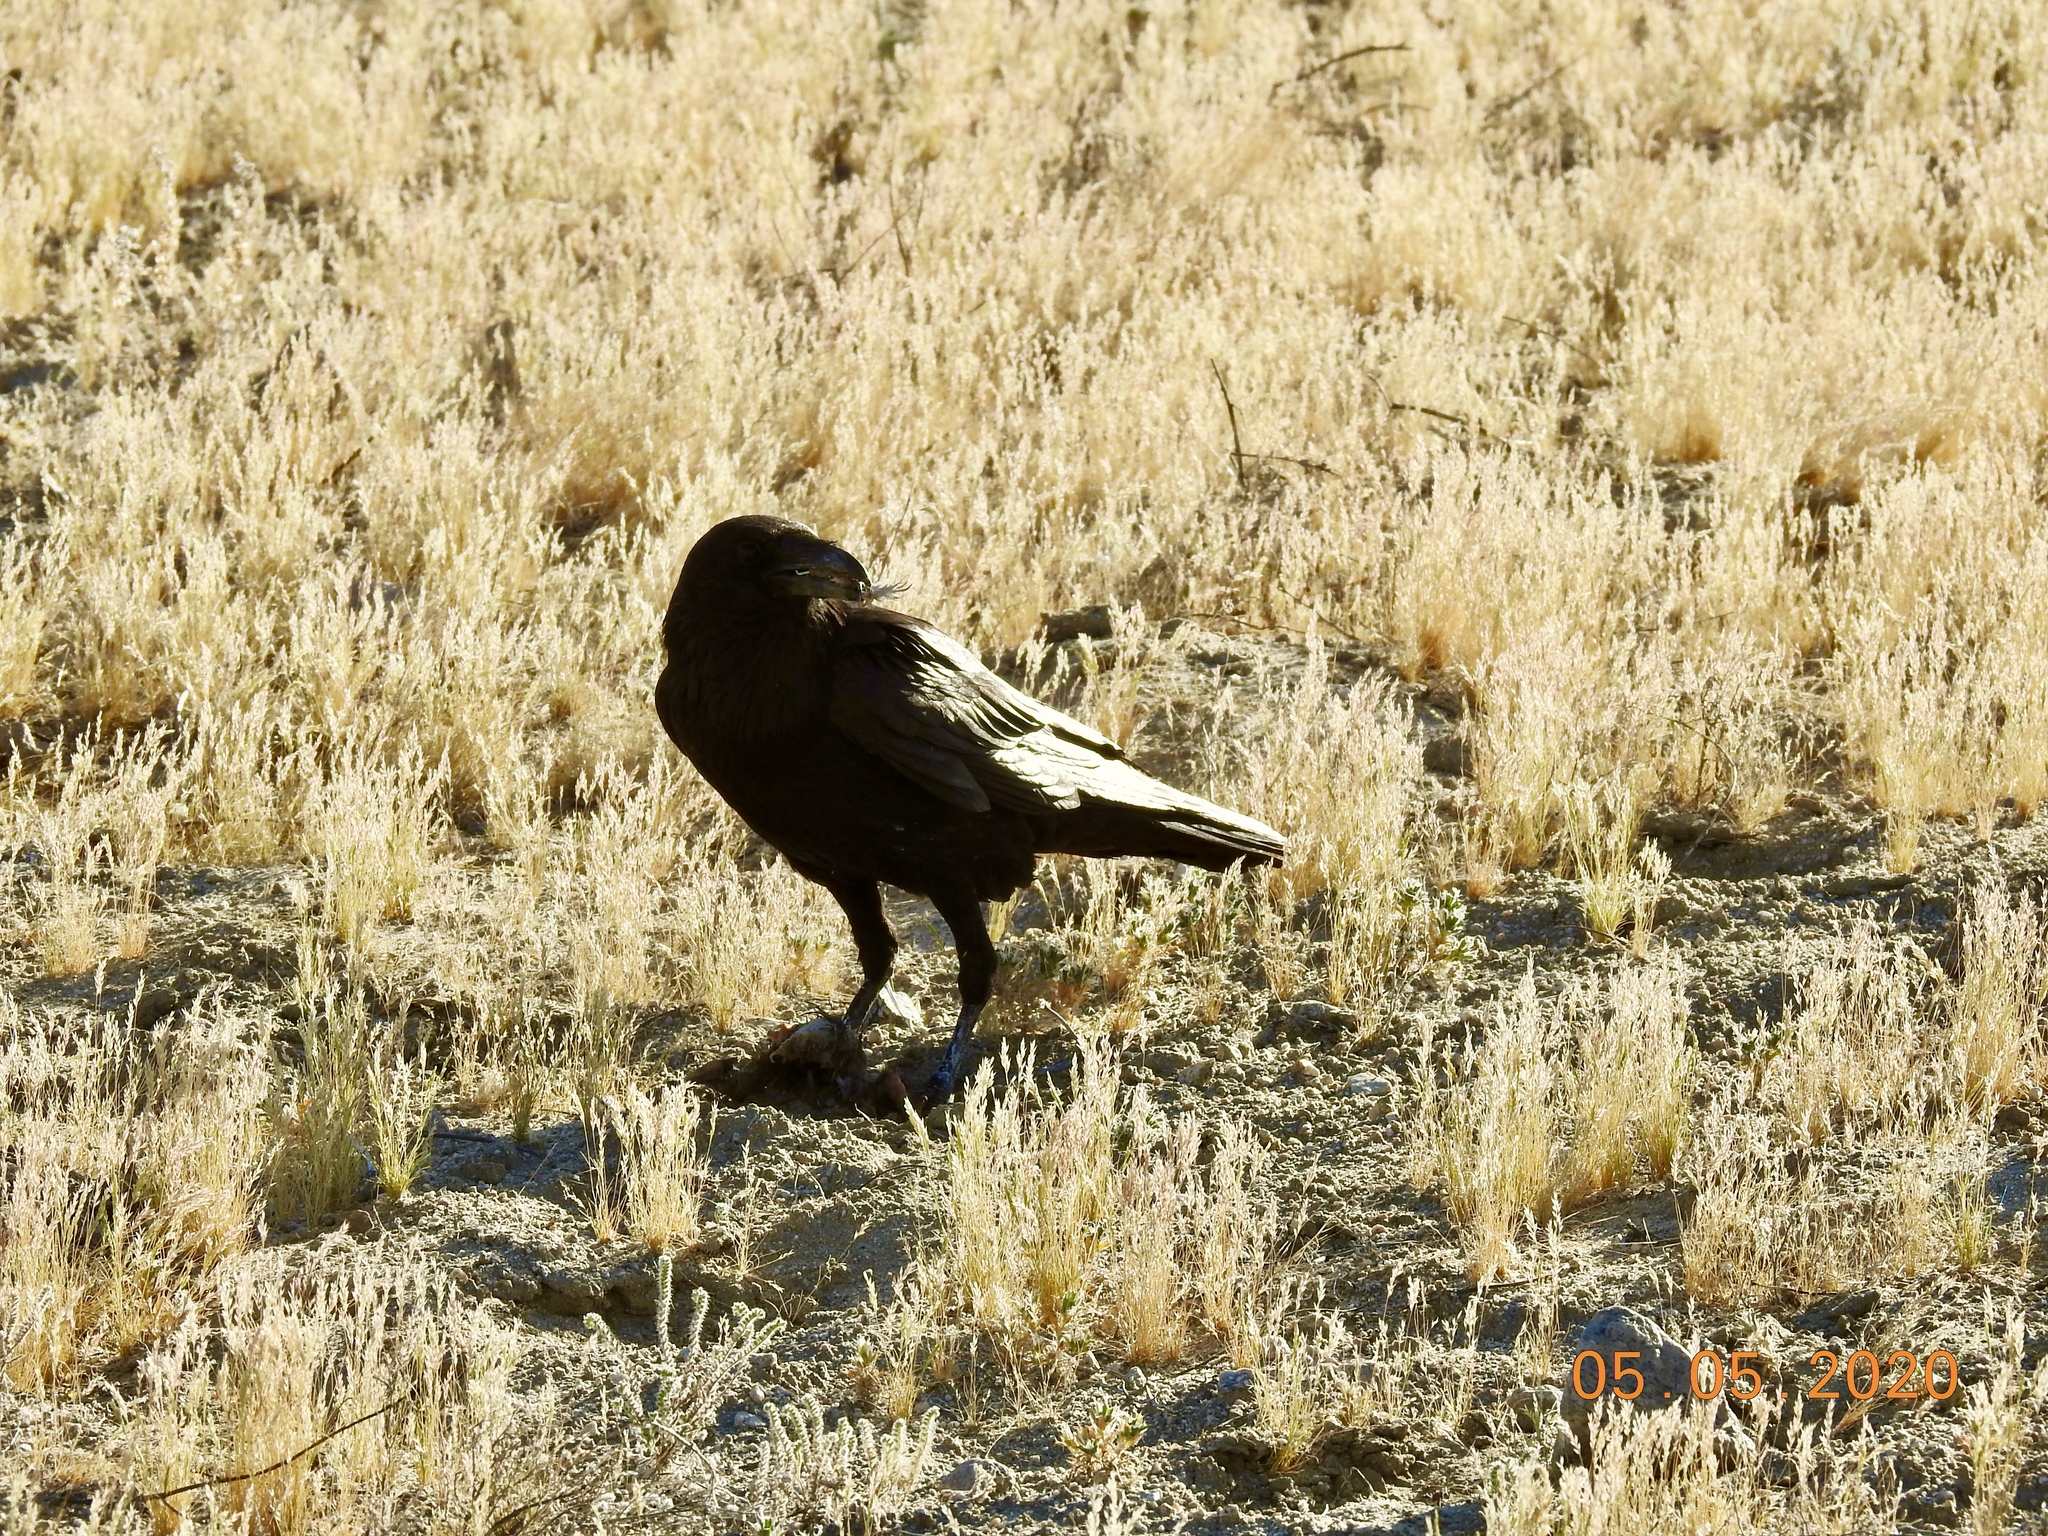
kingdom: Animalia
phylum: Chordata
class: Aves
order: Passeriformes
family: Corvidae
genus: Corvus
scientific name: Corvus corax
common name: Common raven
